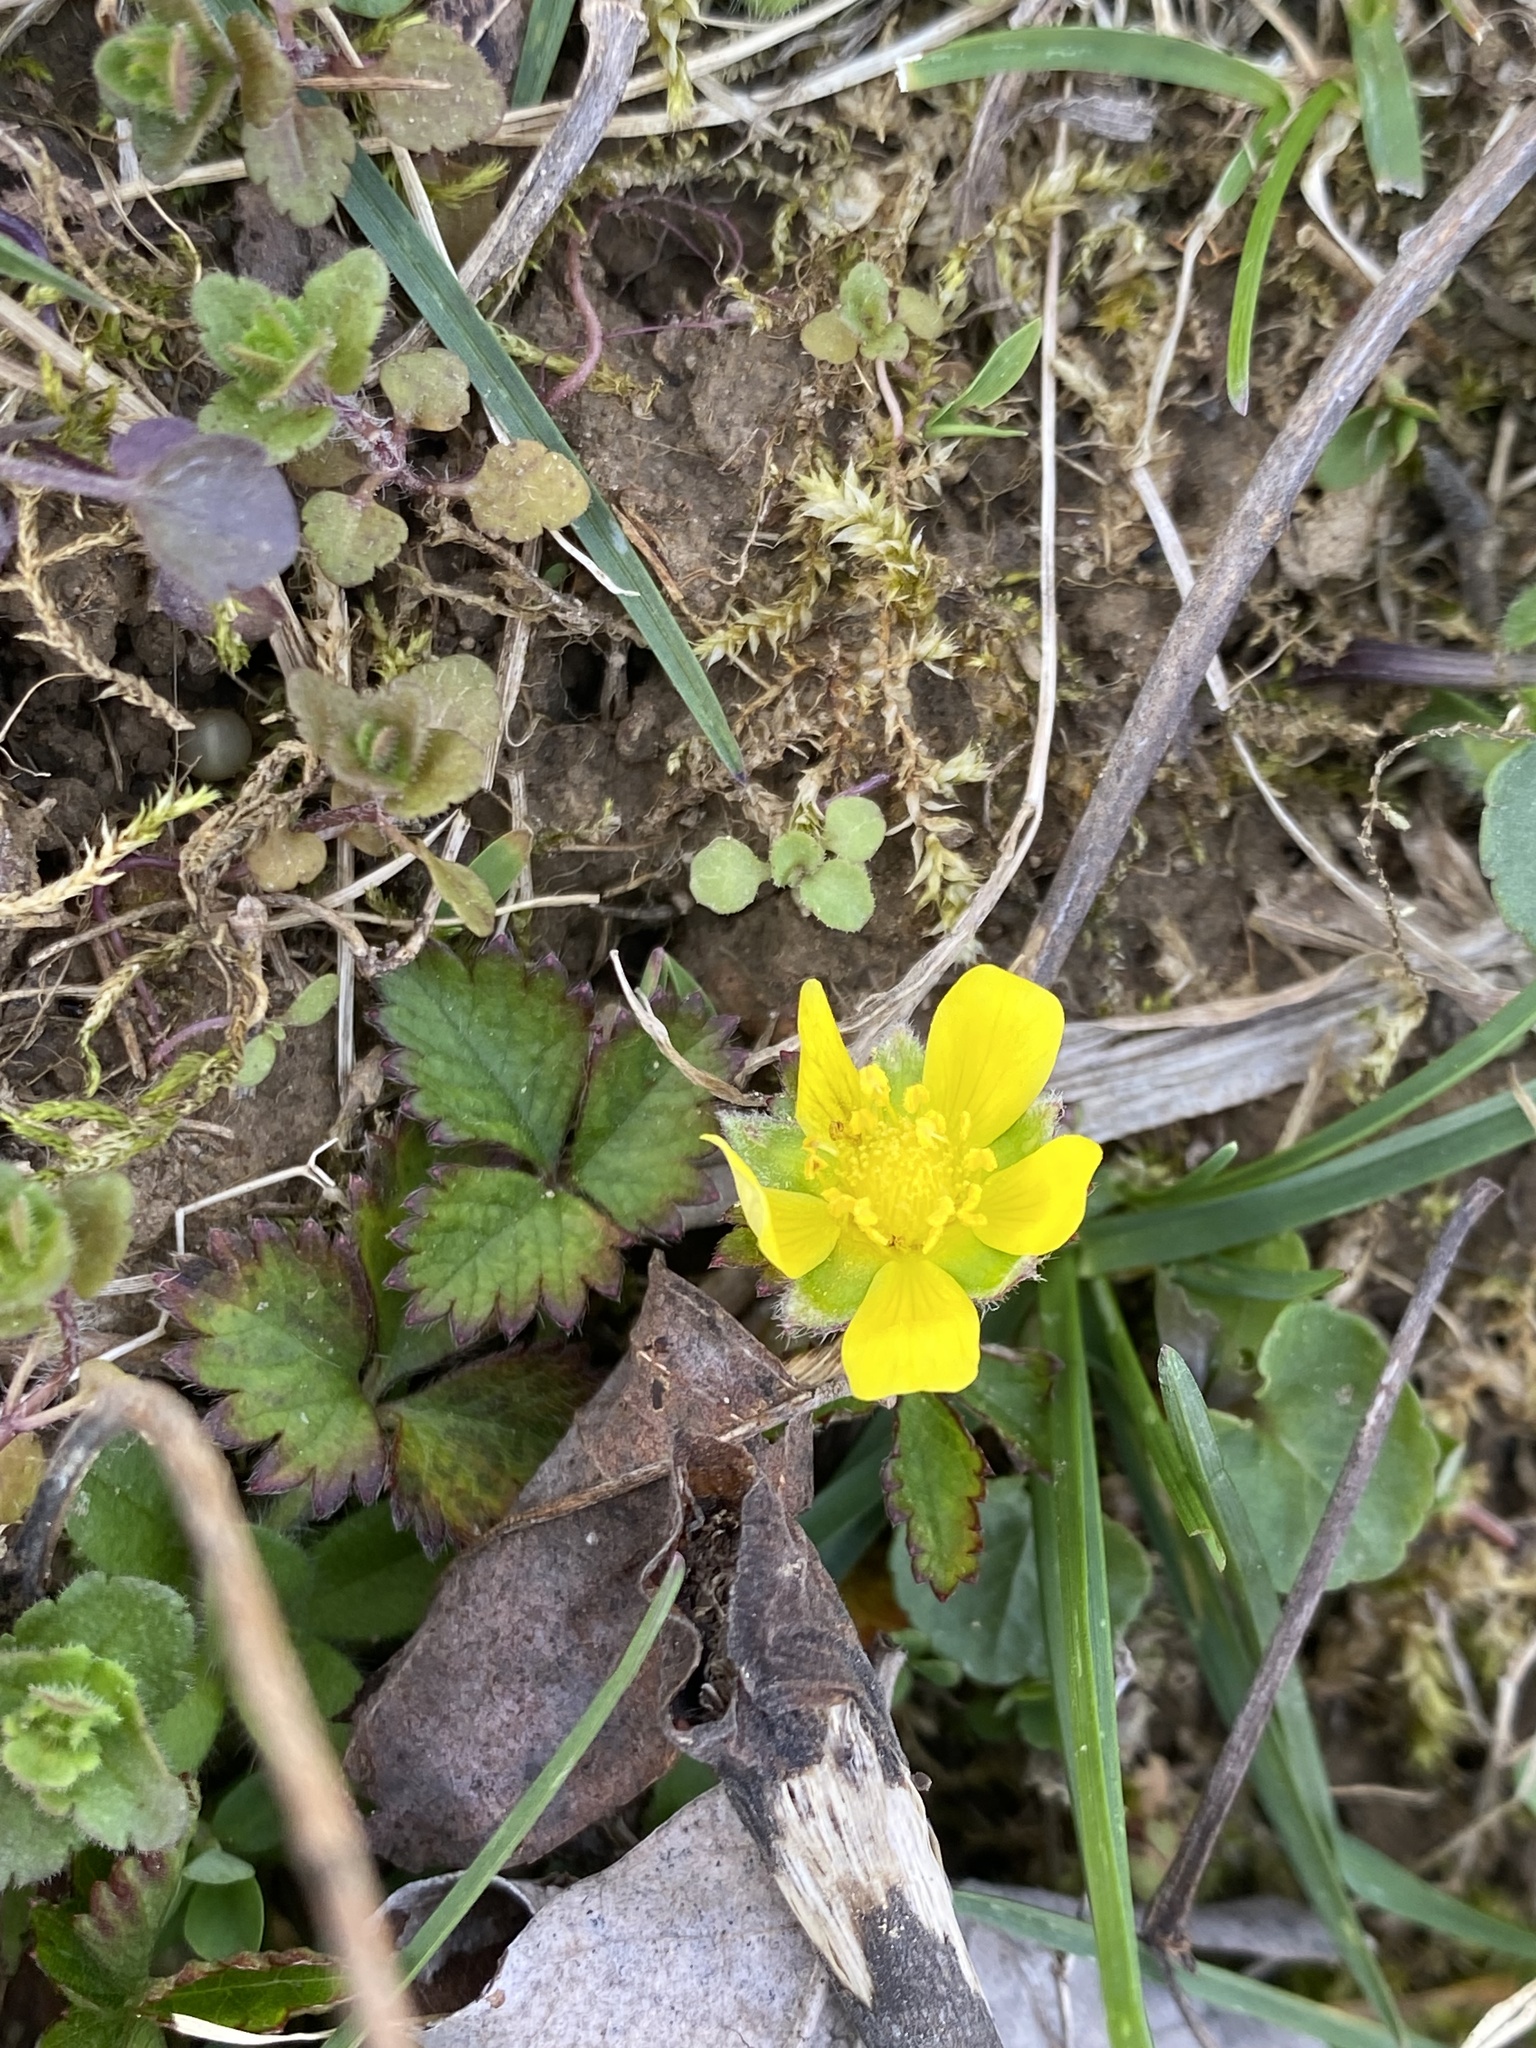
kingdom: Plantae
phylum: Tracheophyta
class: Magnoliopsida
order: Rosales
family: Rosaceae
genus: Potentilla
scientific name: Potentilla indica
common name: Yellow-flowered strawberry
